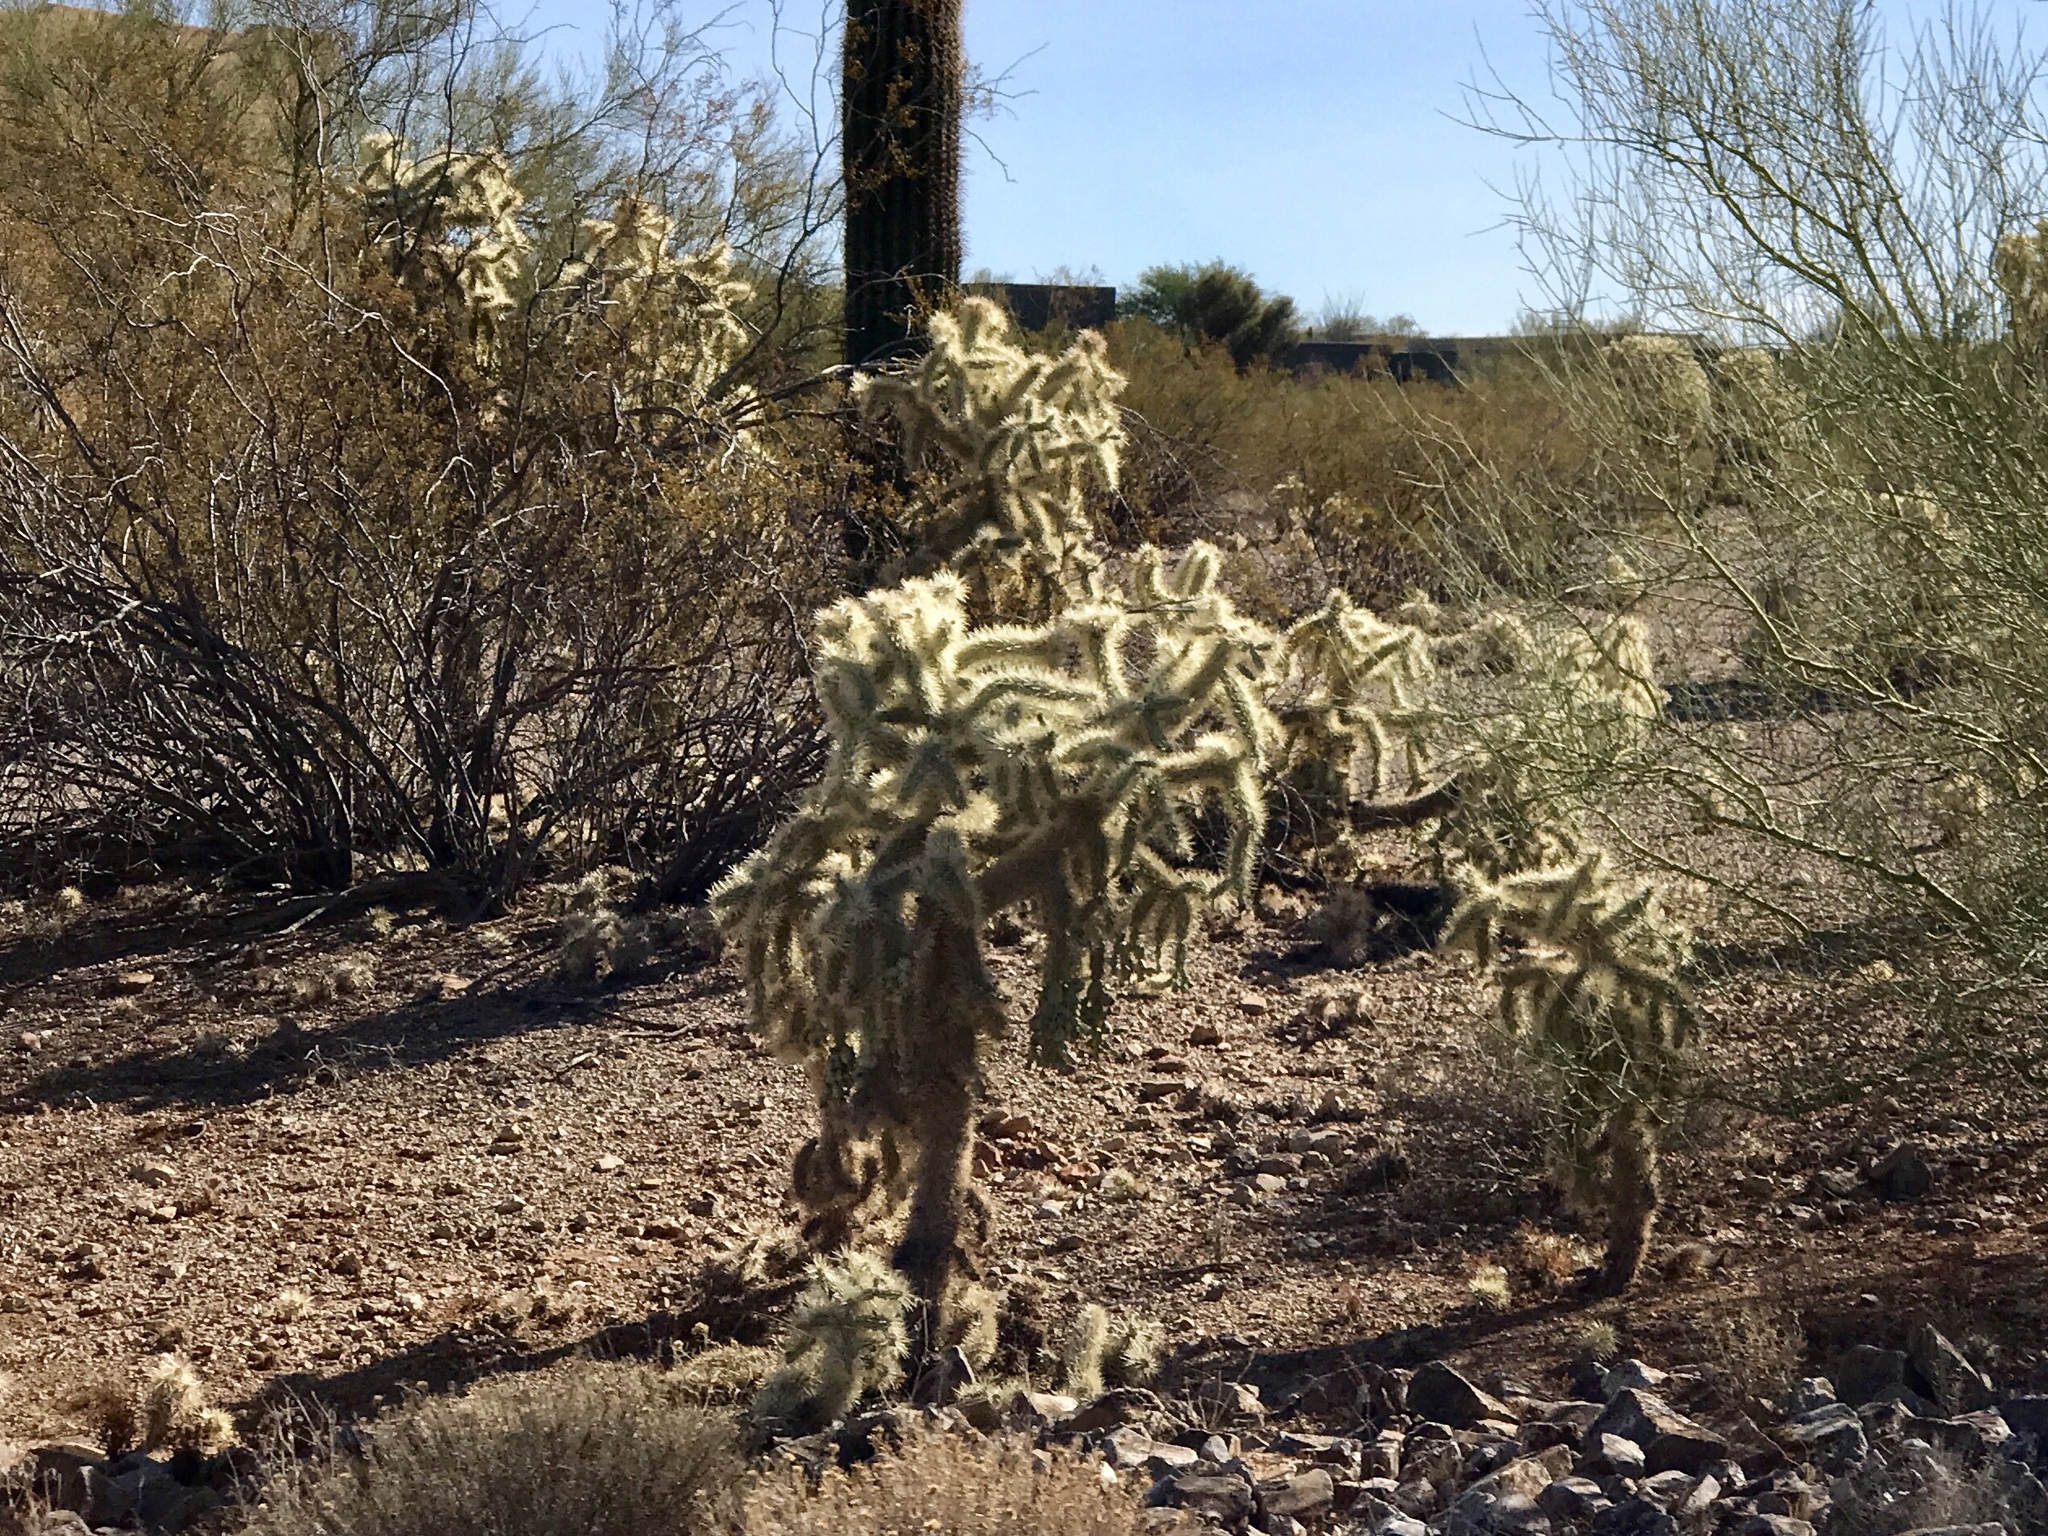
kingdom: Plantae
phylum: Tracheophyta
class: Magnoliopsida
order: Caryophyllales
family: Cactaceae
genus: Cylindropuntia
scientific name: Cylindropuntia fulgida
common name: Jumping cholla
